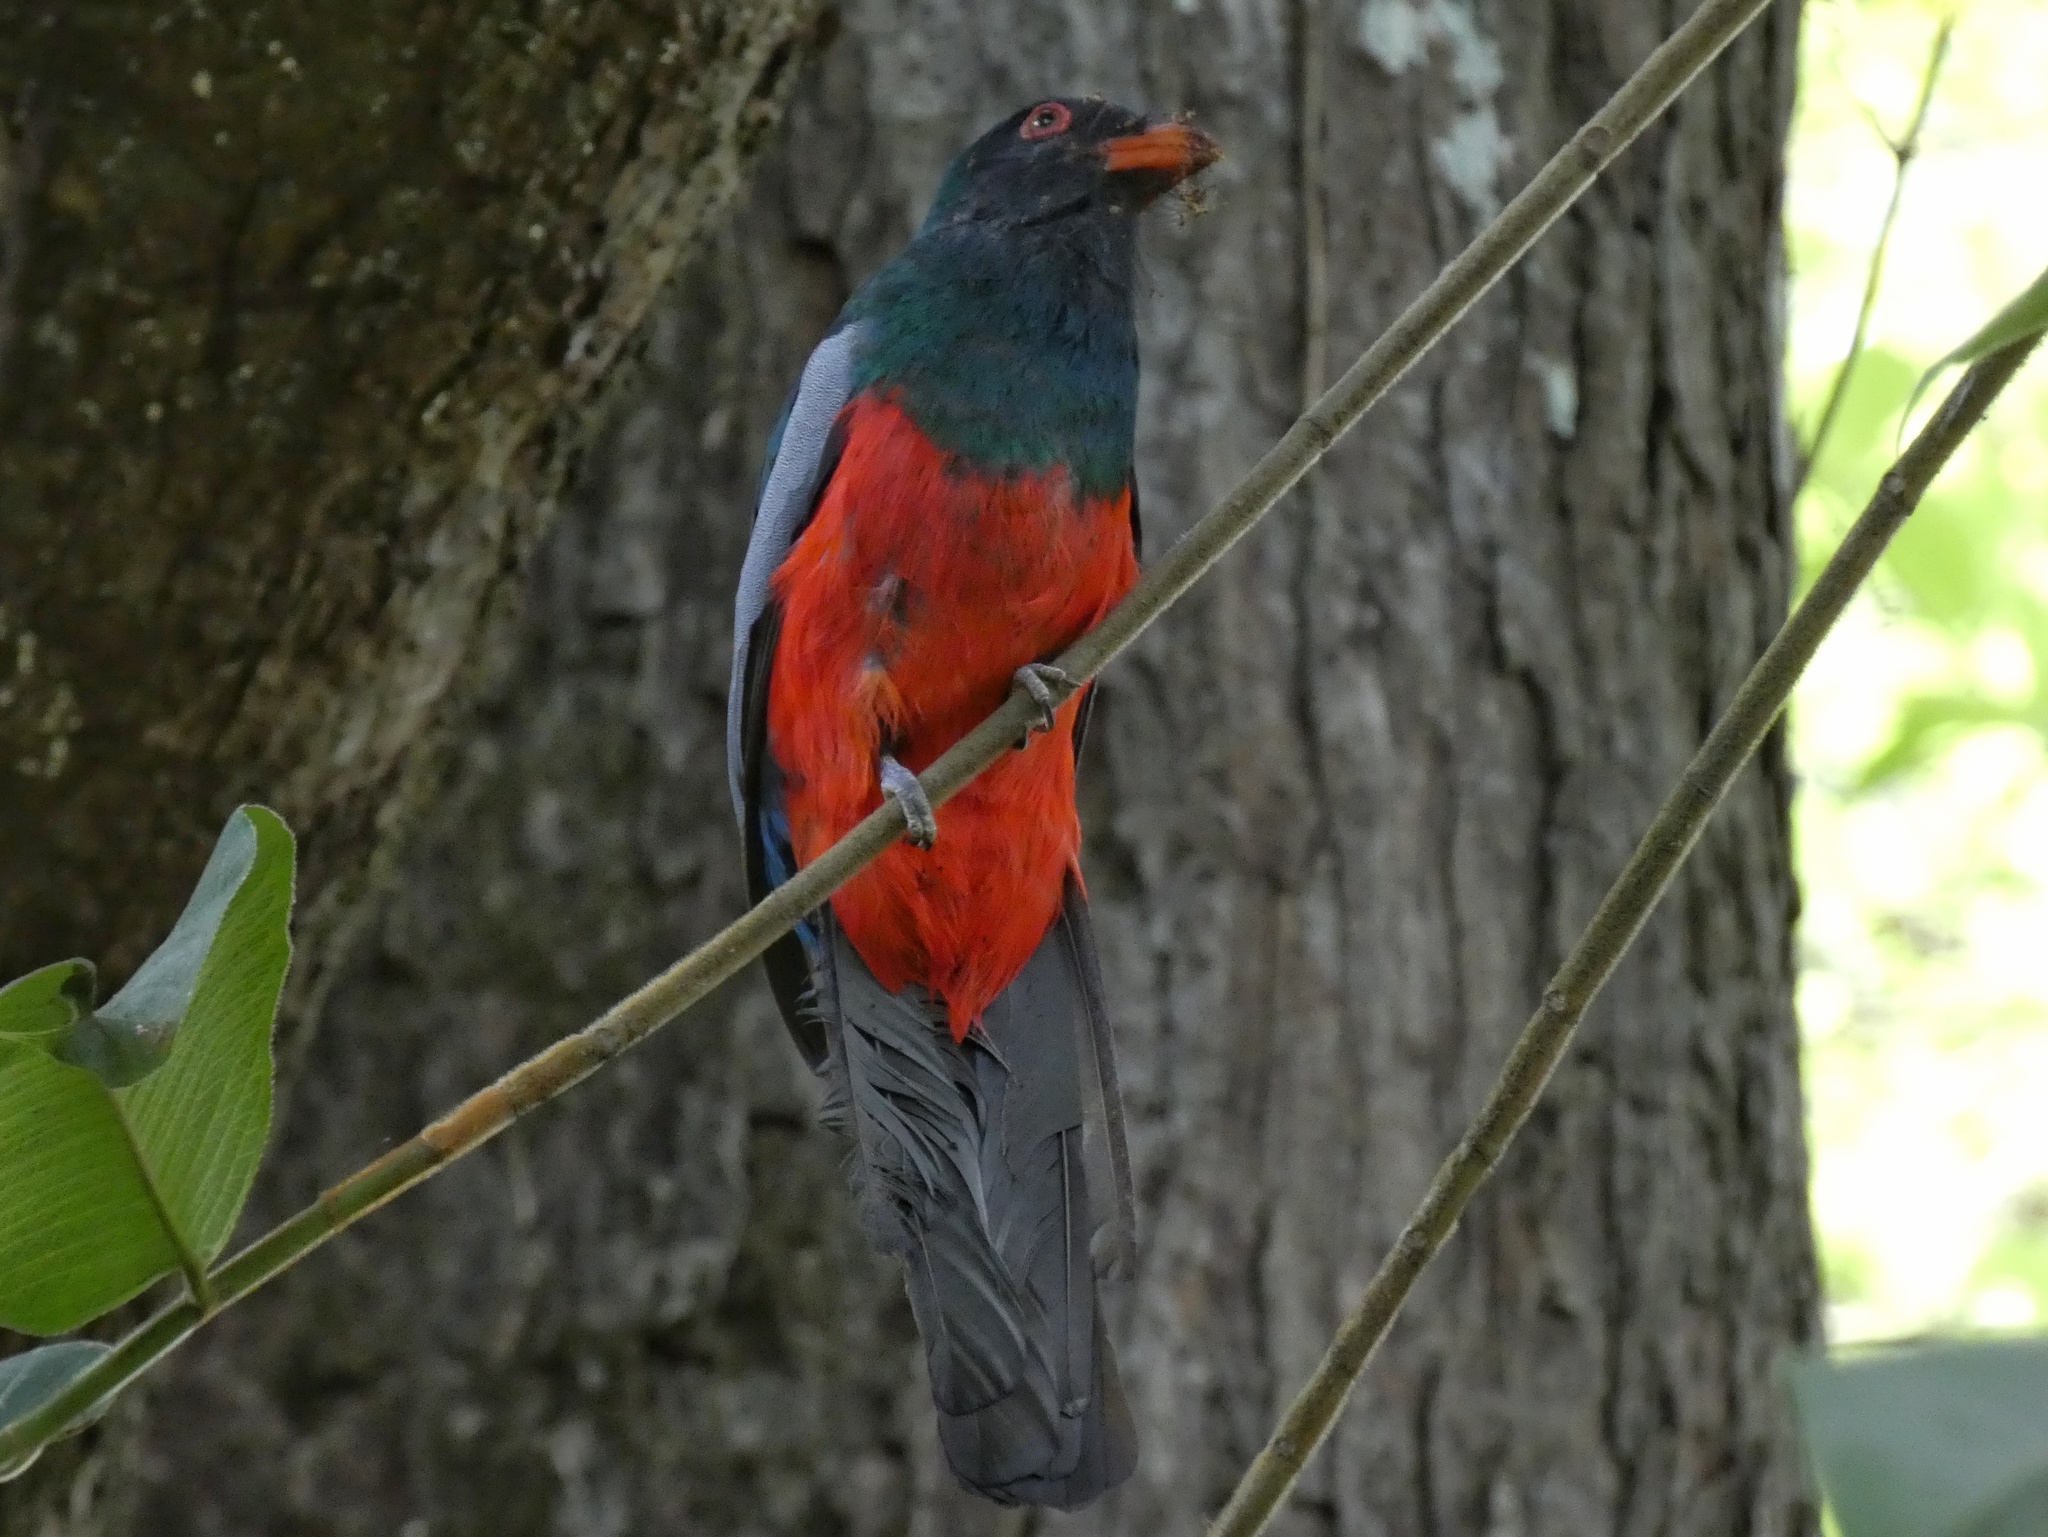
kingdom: Animalia
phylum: Chordata
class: Aves
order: Trogoniformes
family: Trogonidae
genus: Trogon
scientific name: Trogon massena
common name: Slaty-tailed trogon
